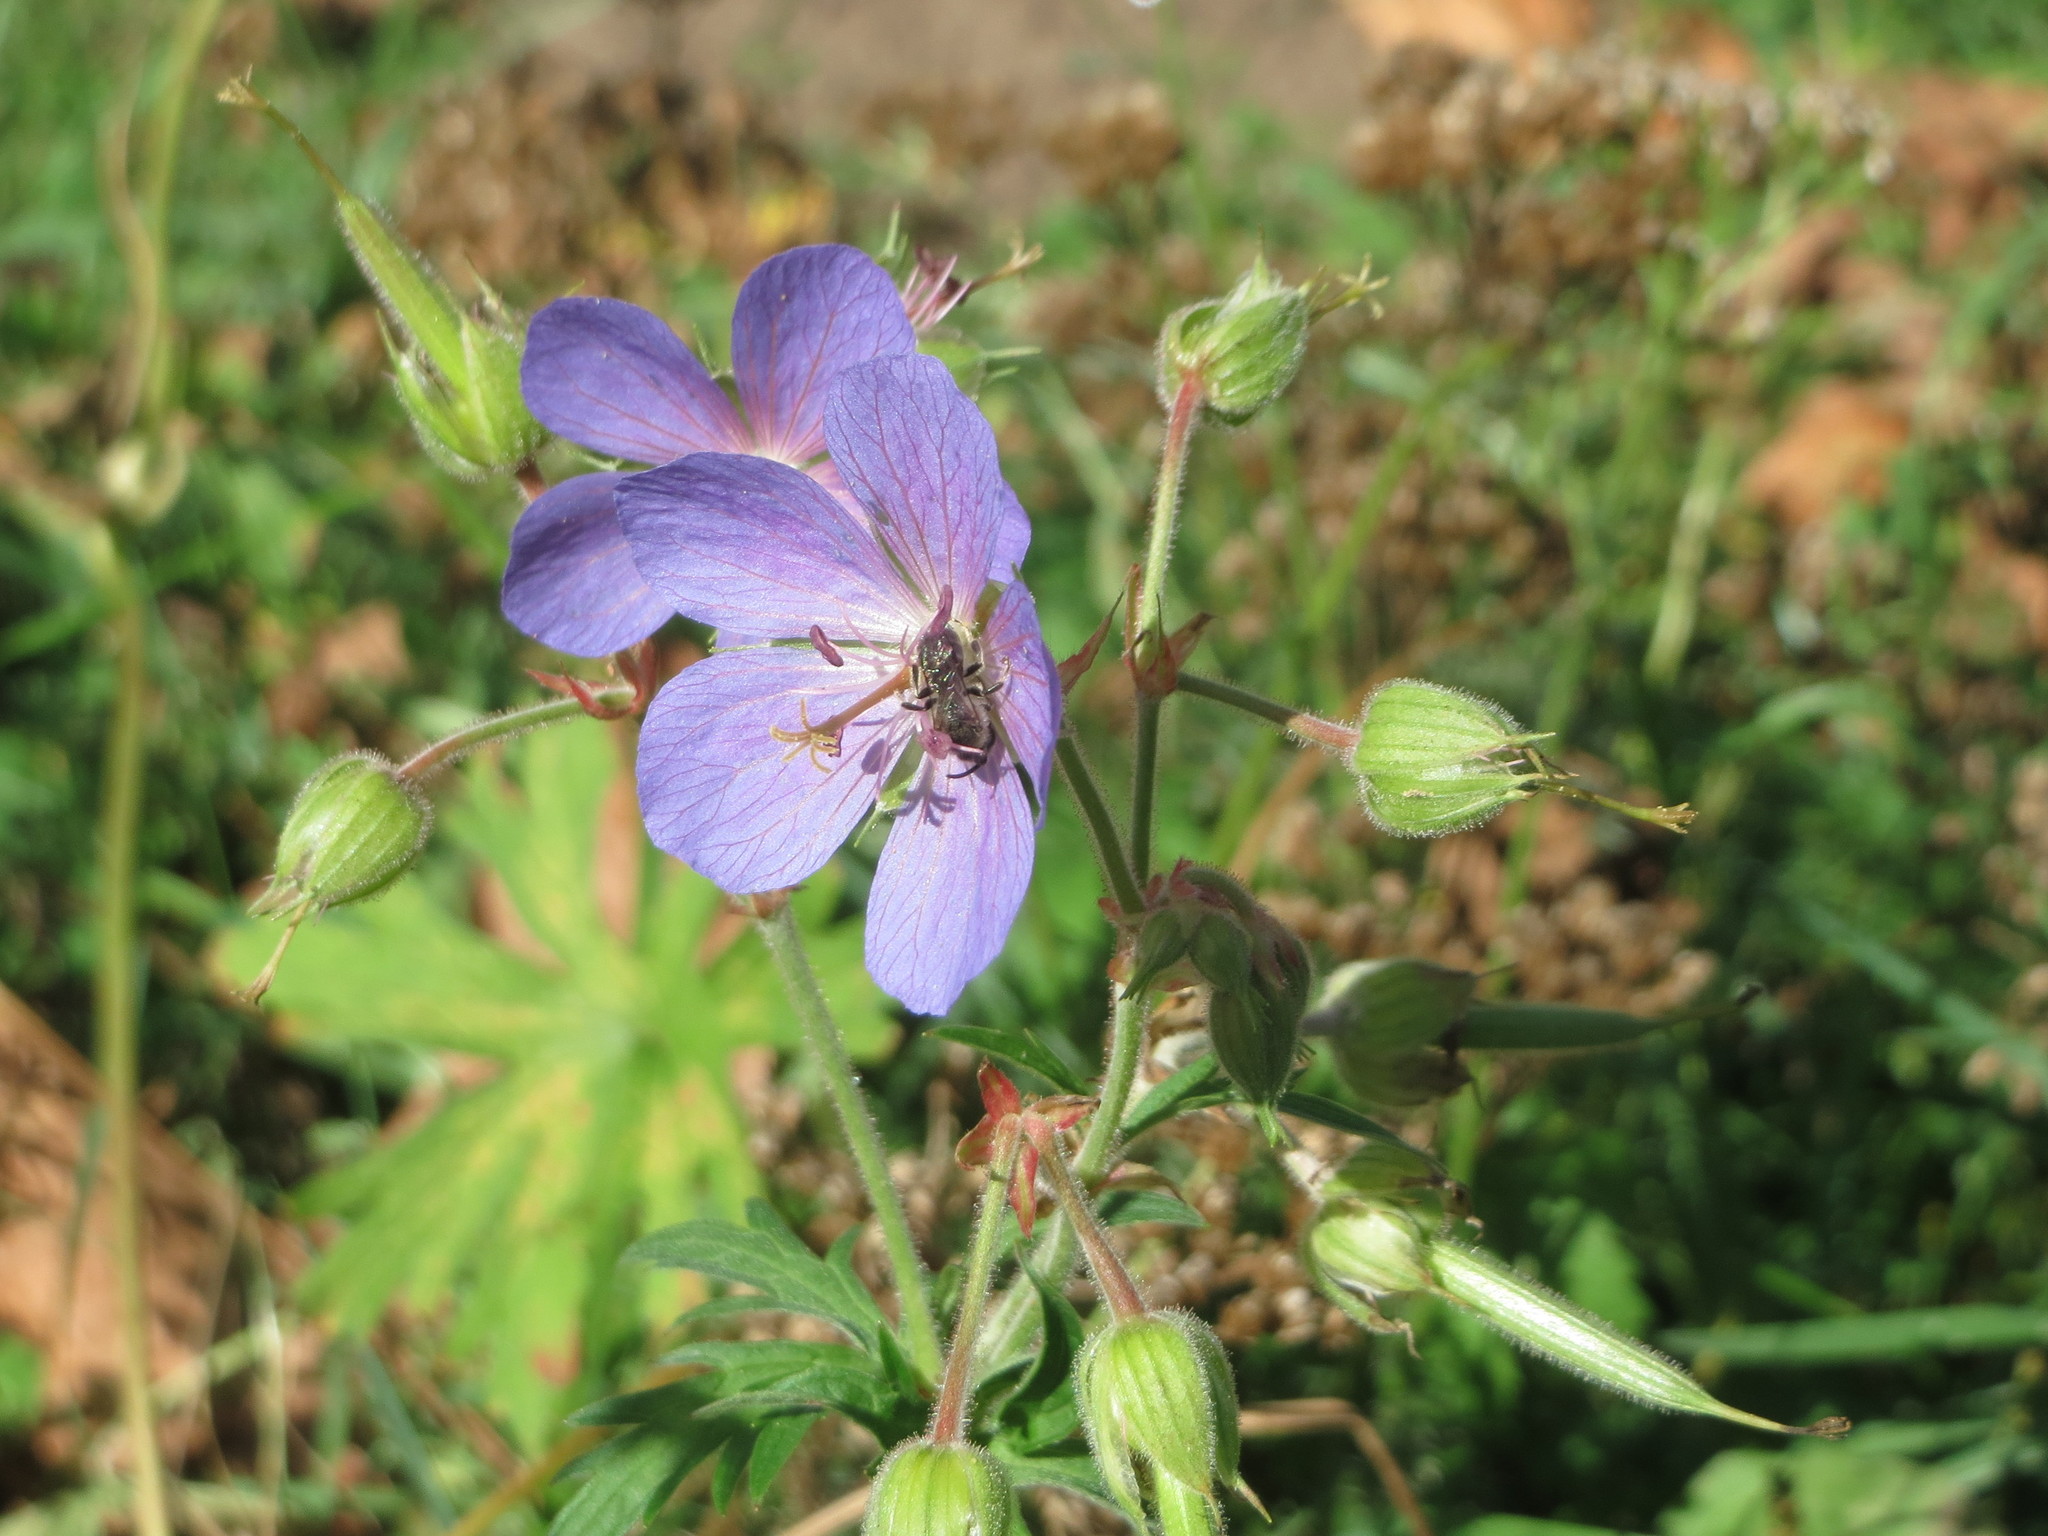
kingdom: Plantae
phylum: Tracheophyta
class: Magnoliopsida
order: Geraniales
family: Geraniaceae
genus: Geranium
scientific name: Geranium pratense
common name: Meadow crane's-bill
